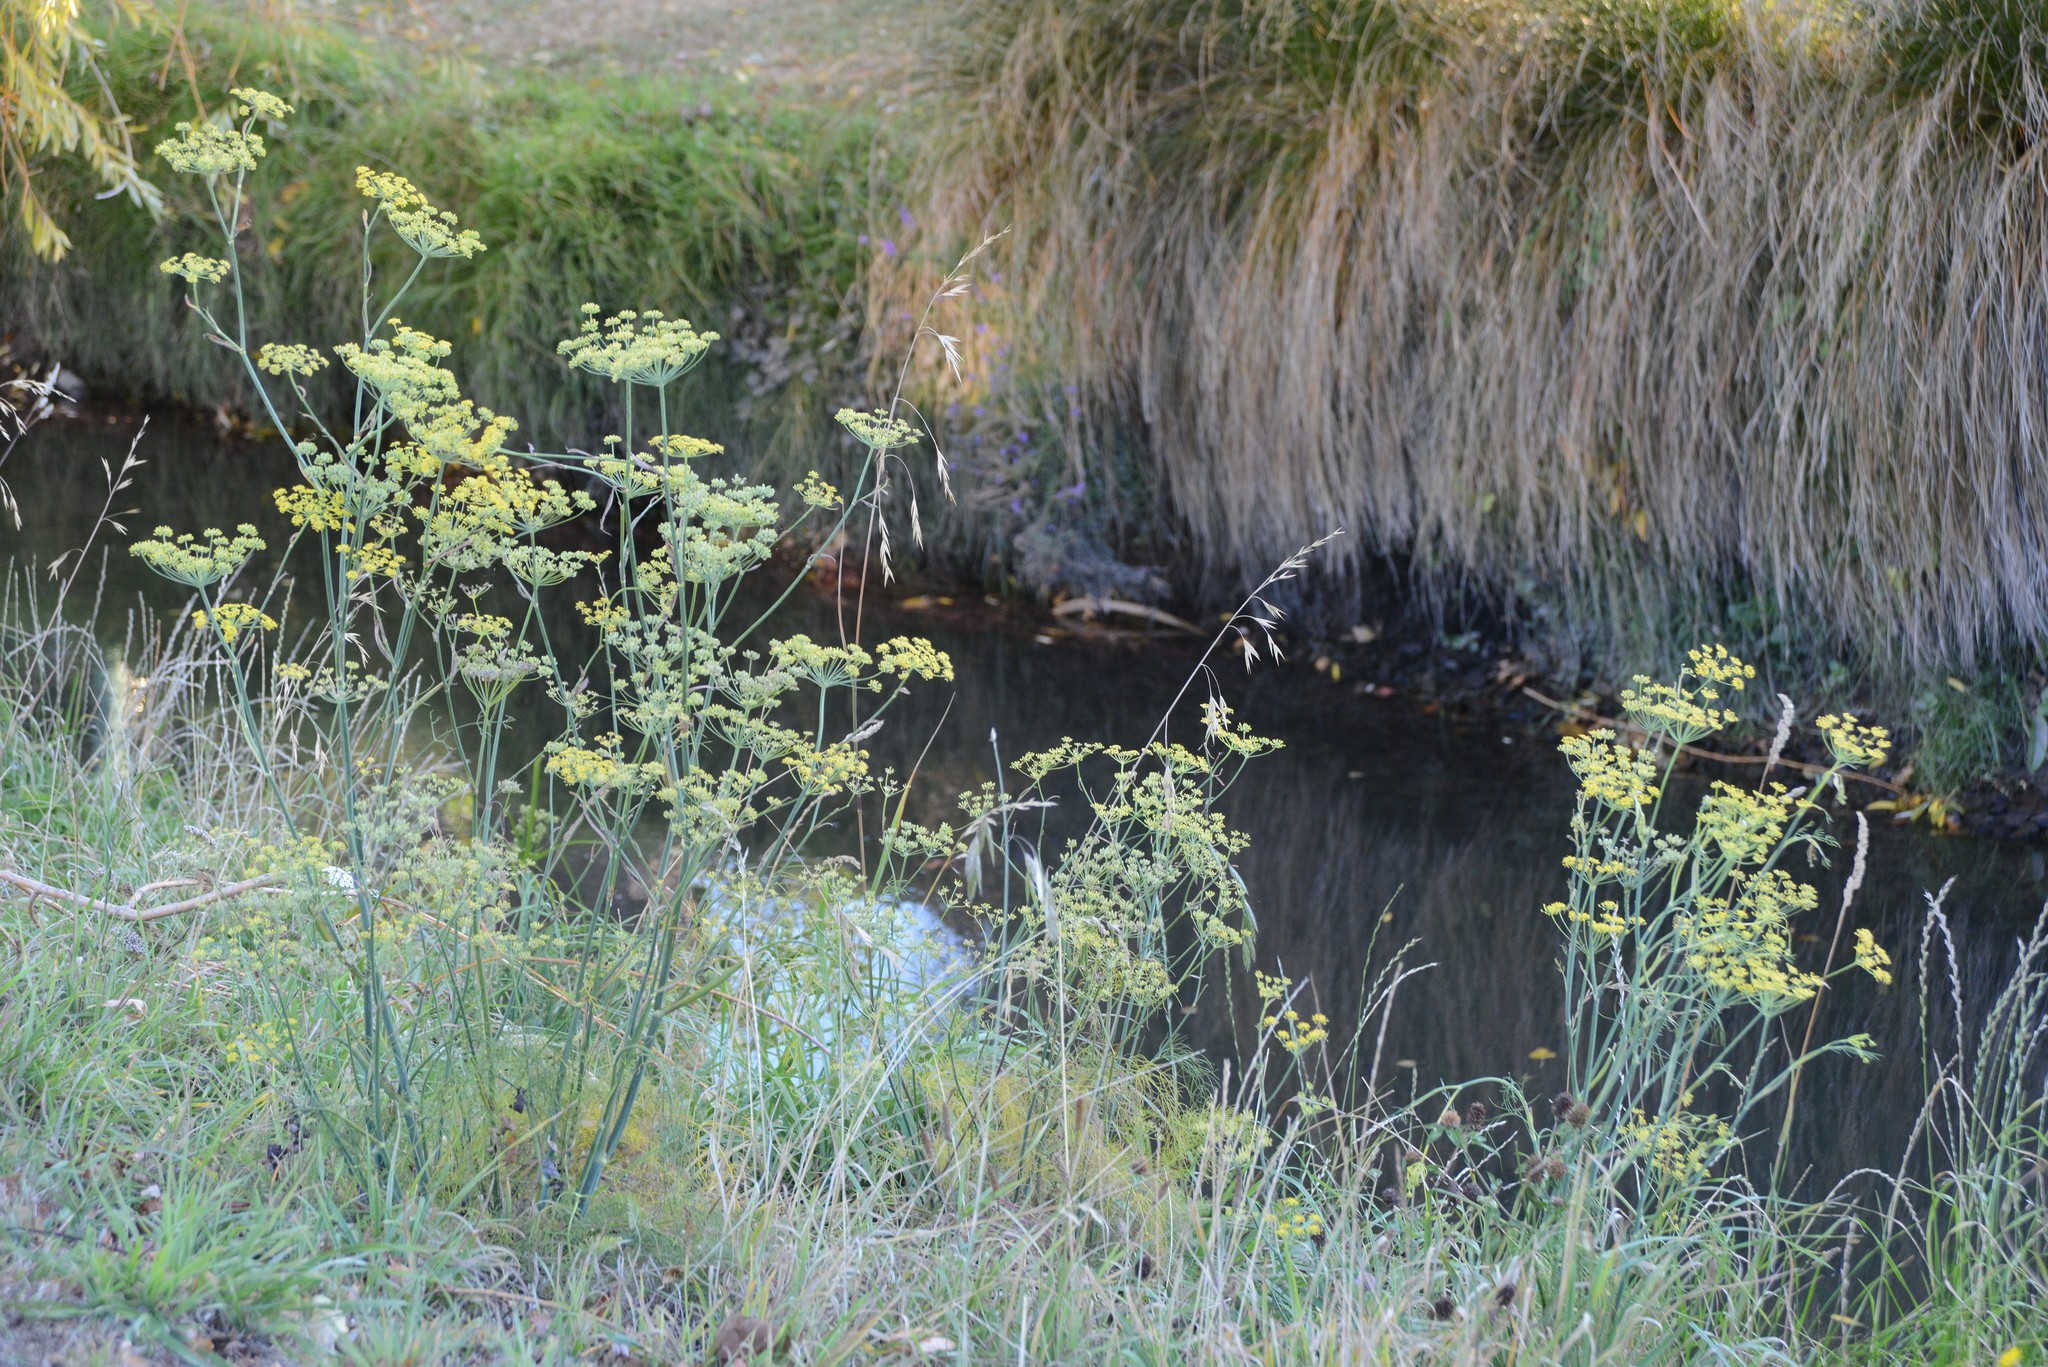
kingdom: Plantae
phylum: Tracheophyta
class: Magnoliopsida
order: Apiales
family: Apiaceae
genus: Foeniculum
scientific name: Foeniculum vulgare
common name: Fennel
